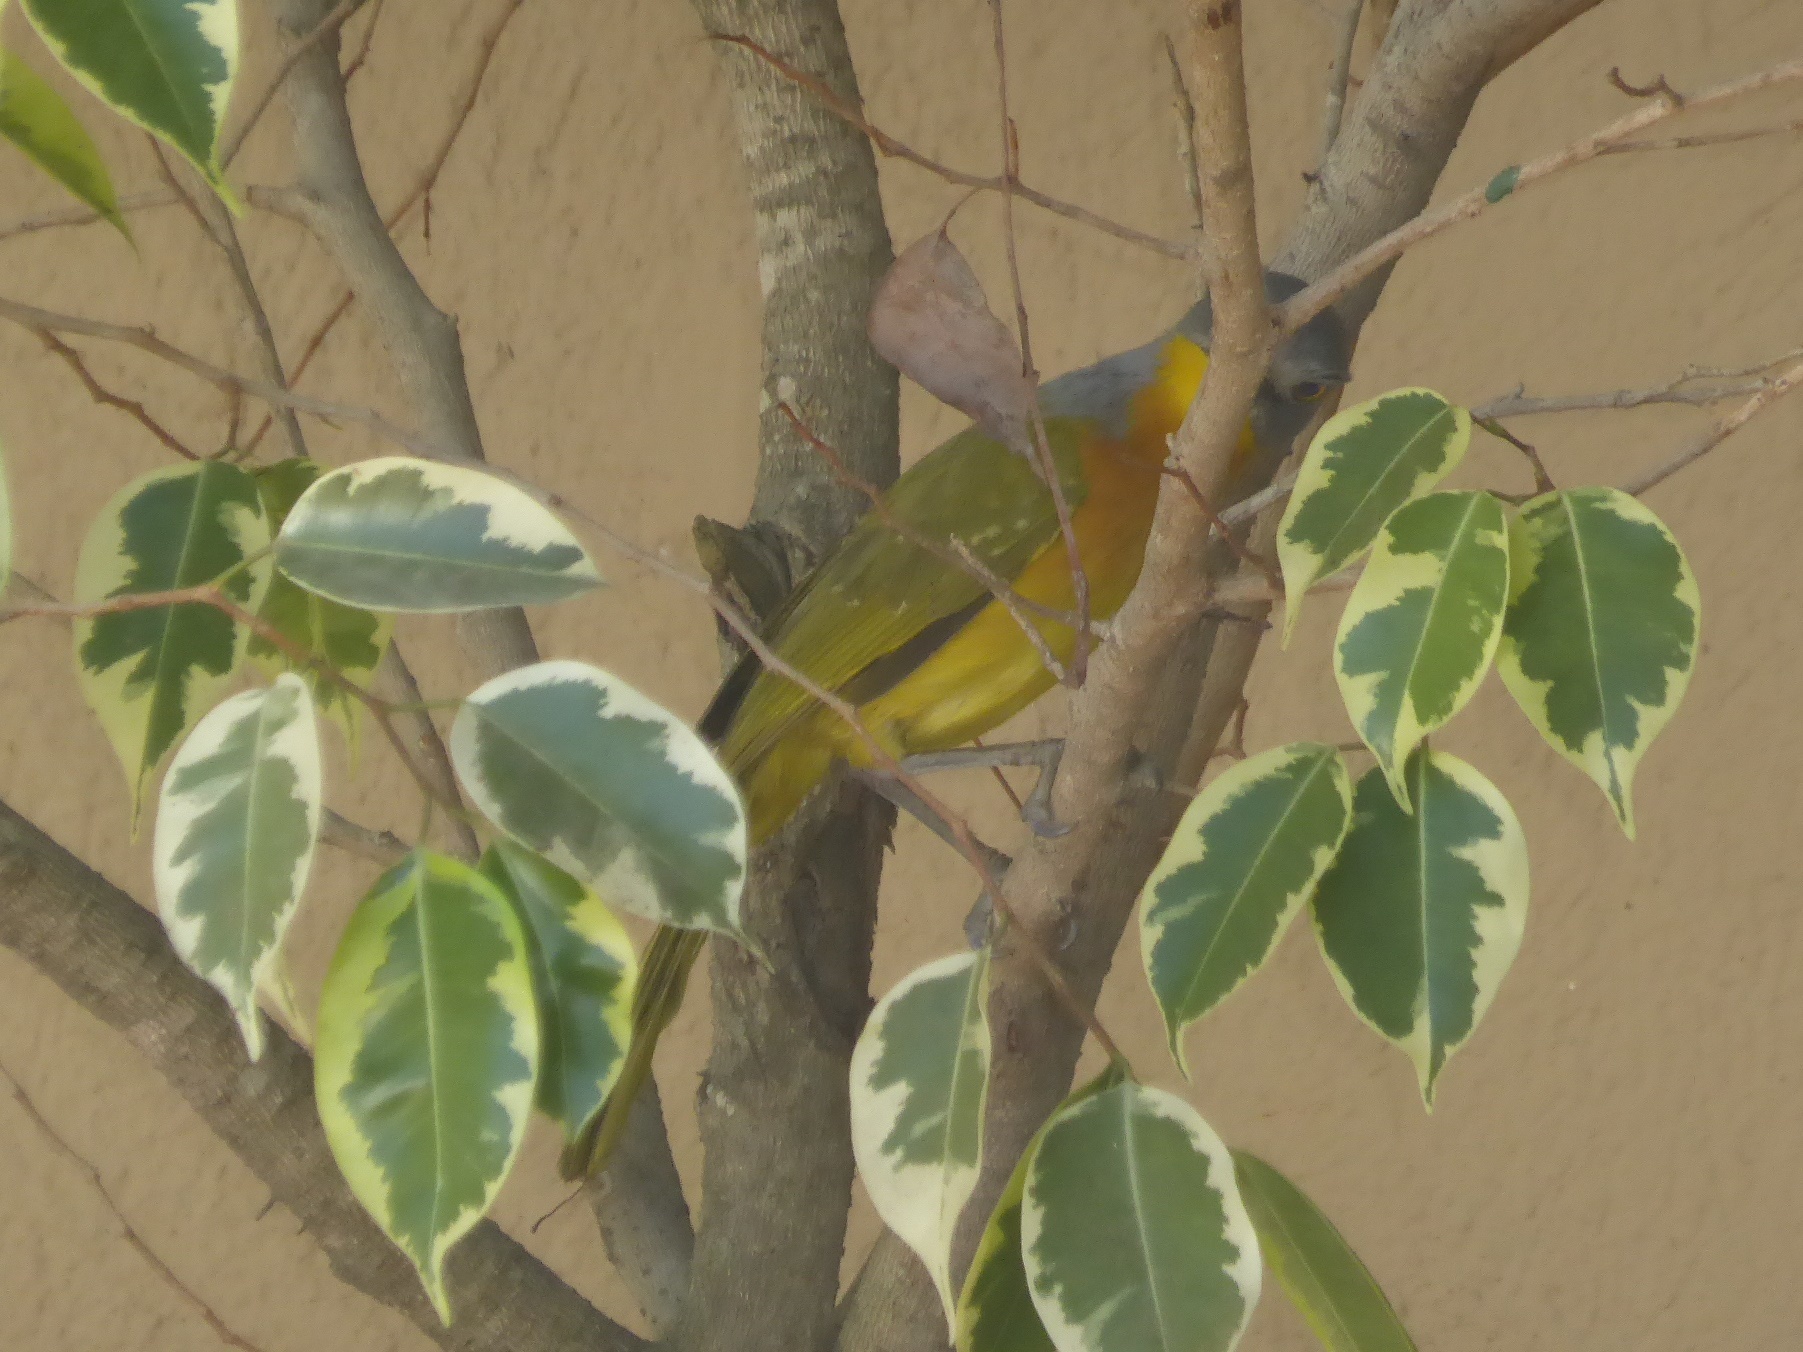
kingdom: Animalia
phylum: Chordata
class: Aves
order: Passeriformes
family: Malaconotidae
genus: Malaconotus
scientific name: Malaconotus blanchoti
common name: Grey-headed bushshrike
